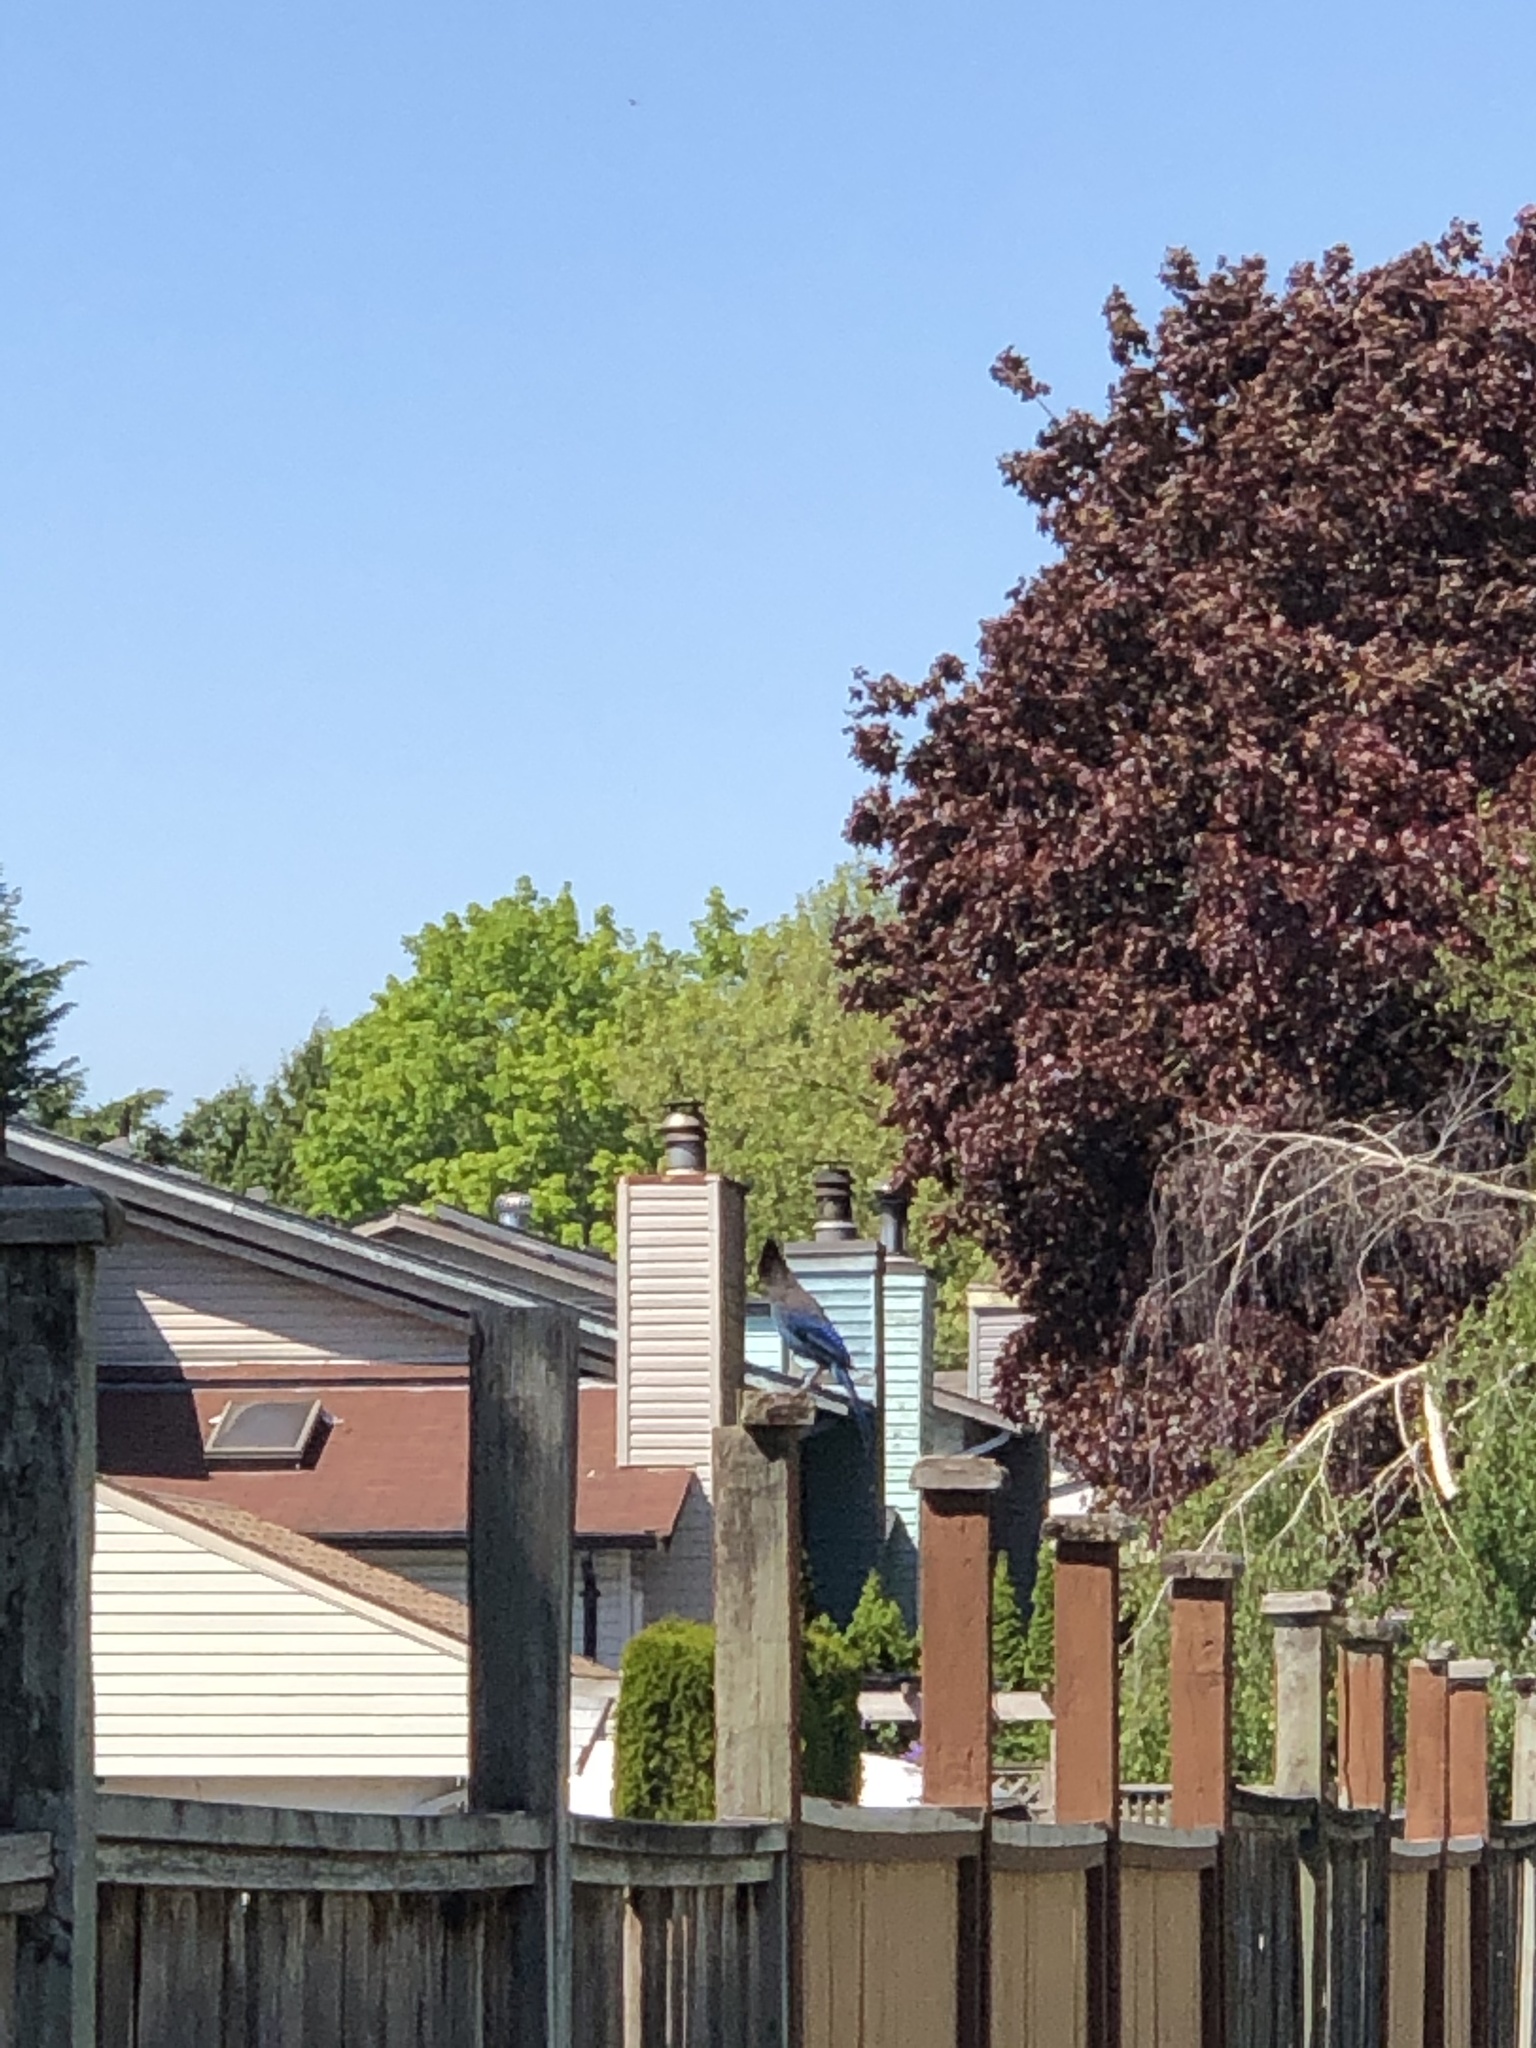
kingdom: Animalia
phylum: Chordata
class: Aves
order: Passeriformes
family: Corvidae
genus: Cyanocitta
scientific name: Cyanocitta stelleri
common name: Steller's jay
